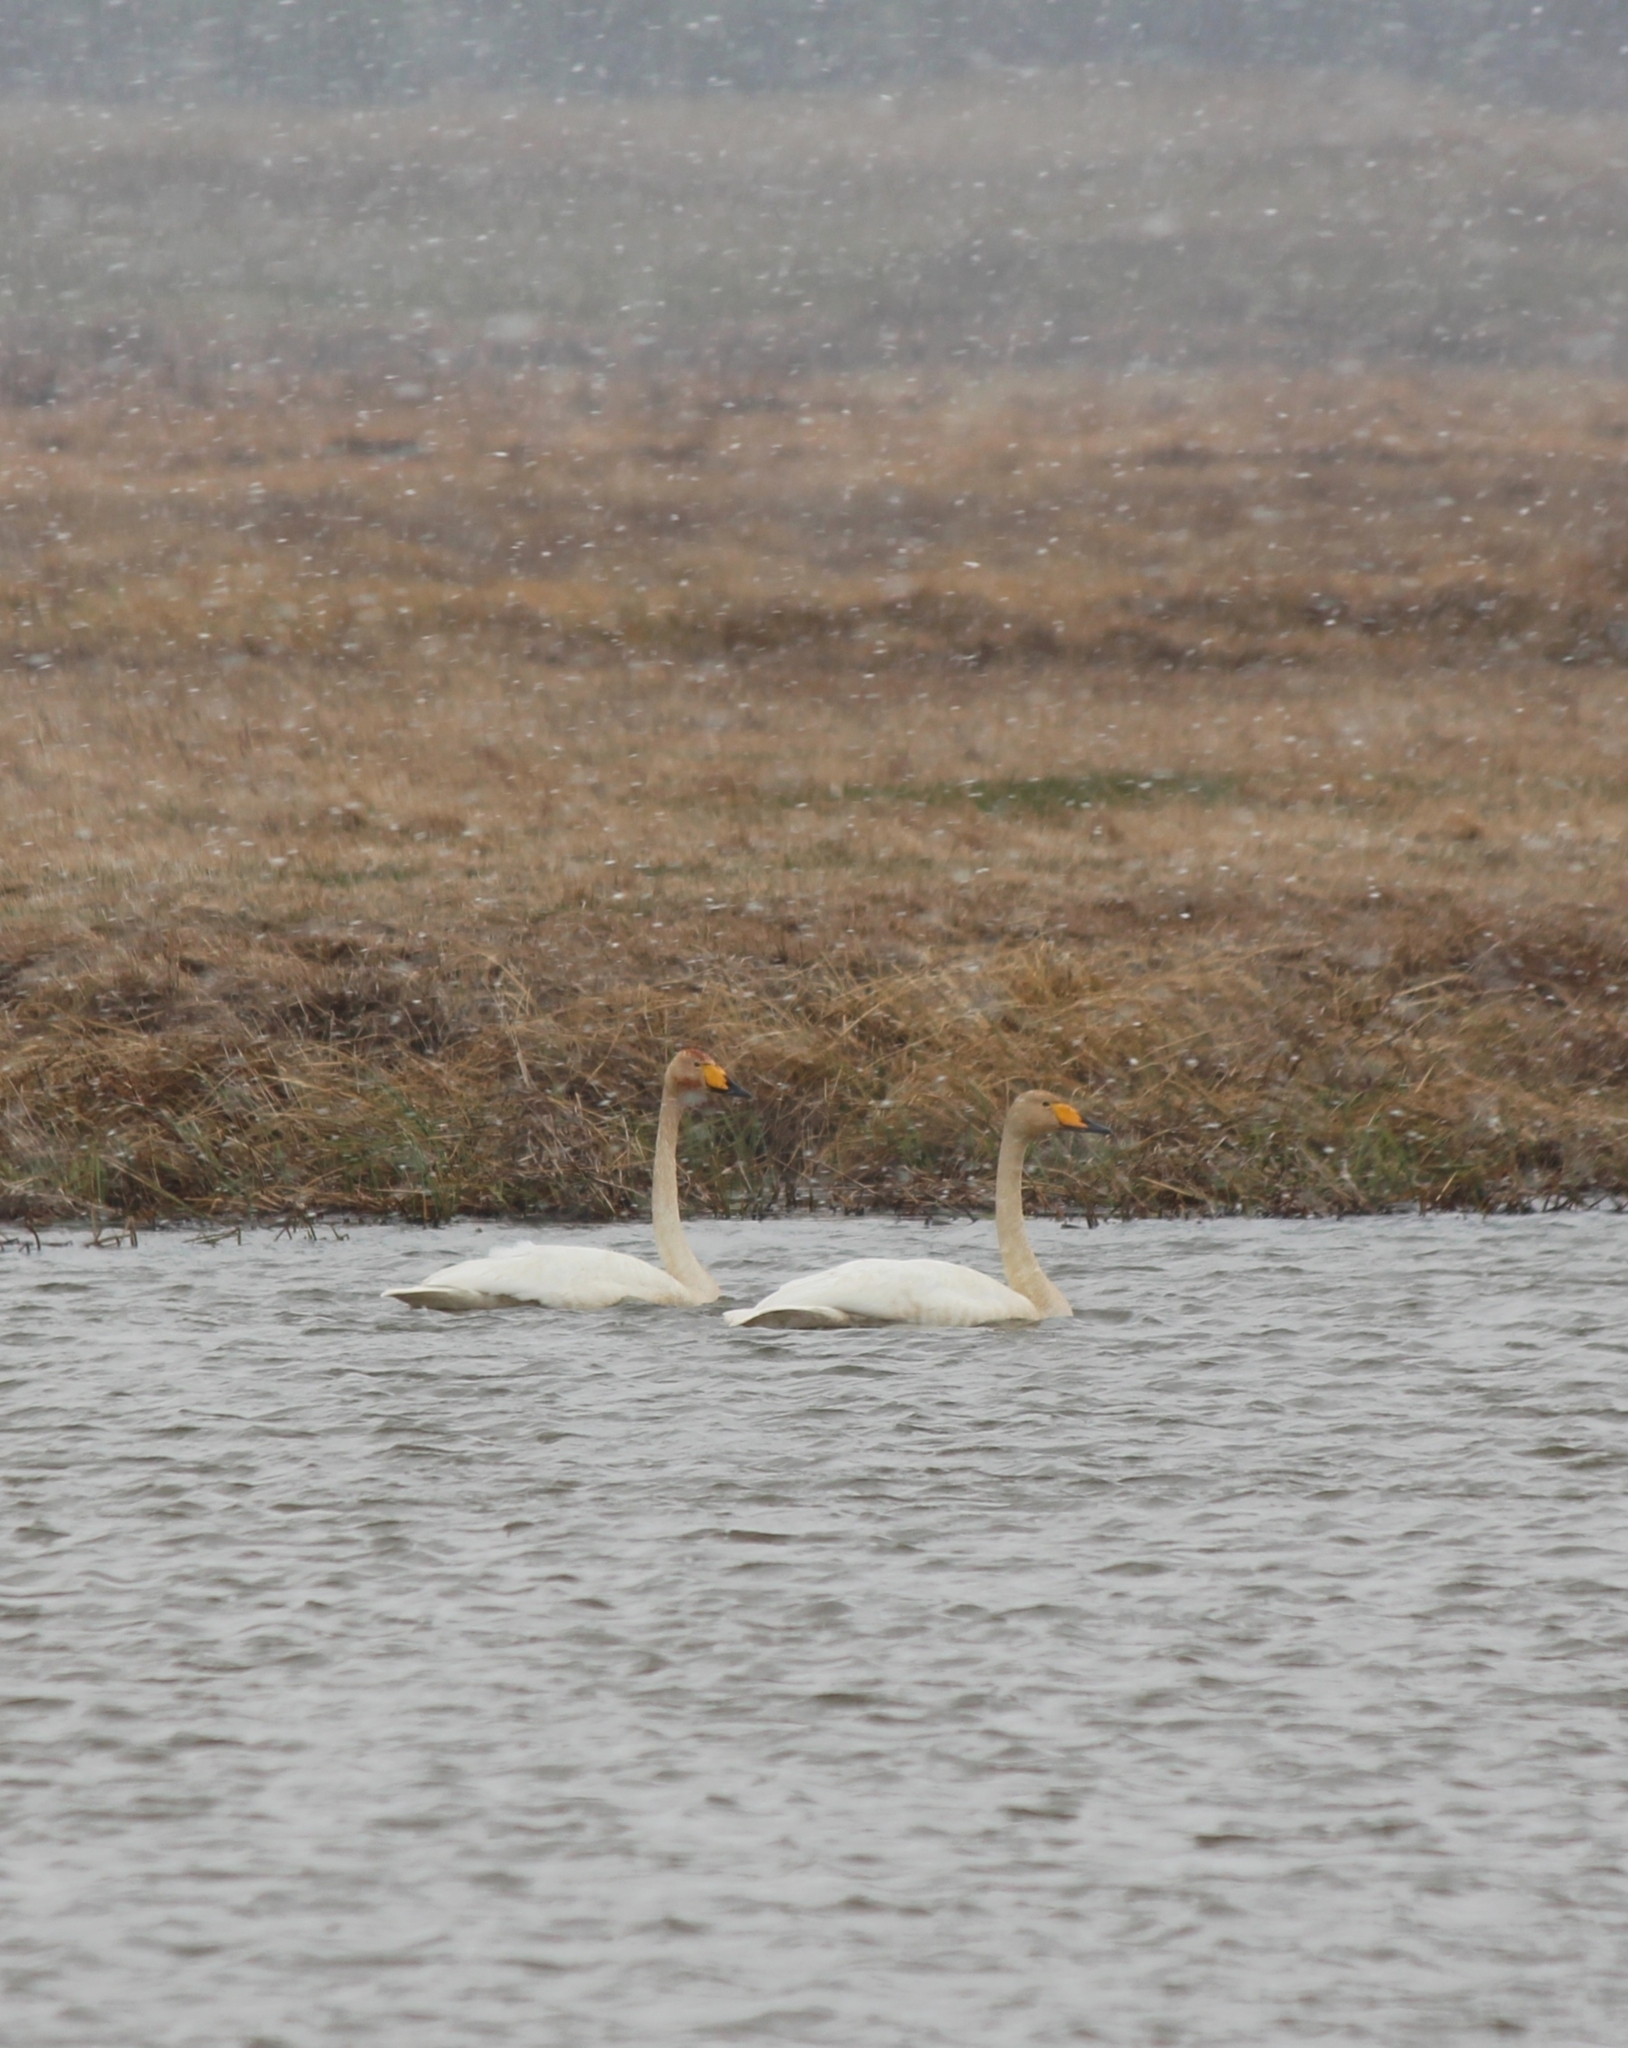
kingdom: Animalia
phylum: Chordata
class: Aves
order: Anseriformes
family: Anatidae
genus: Cygnus
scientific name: Cygnus cygnus
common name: Whooper swan
